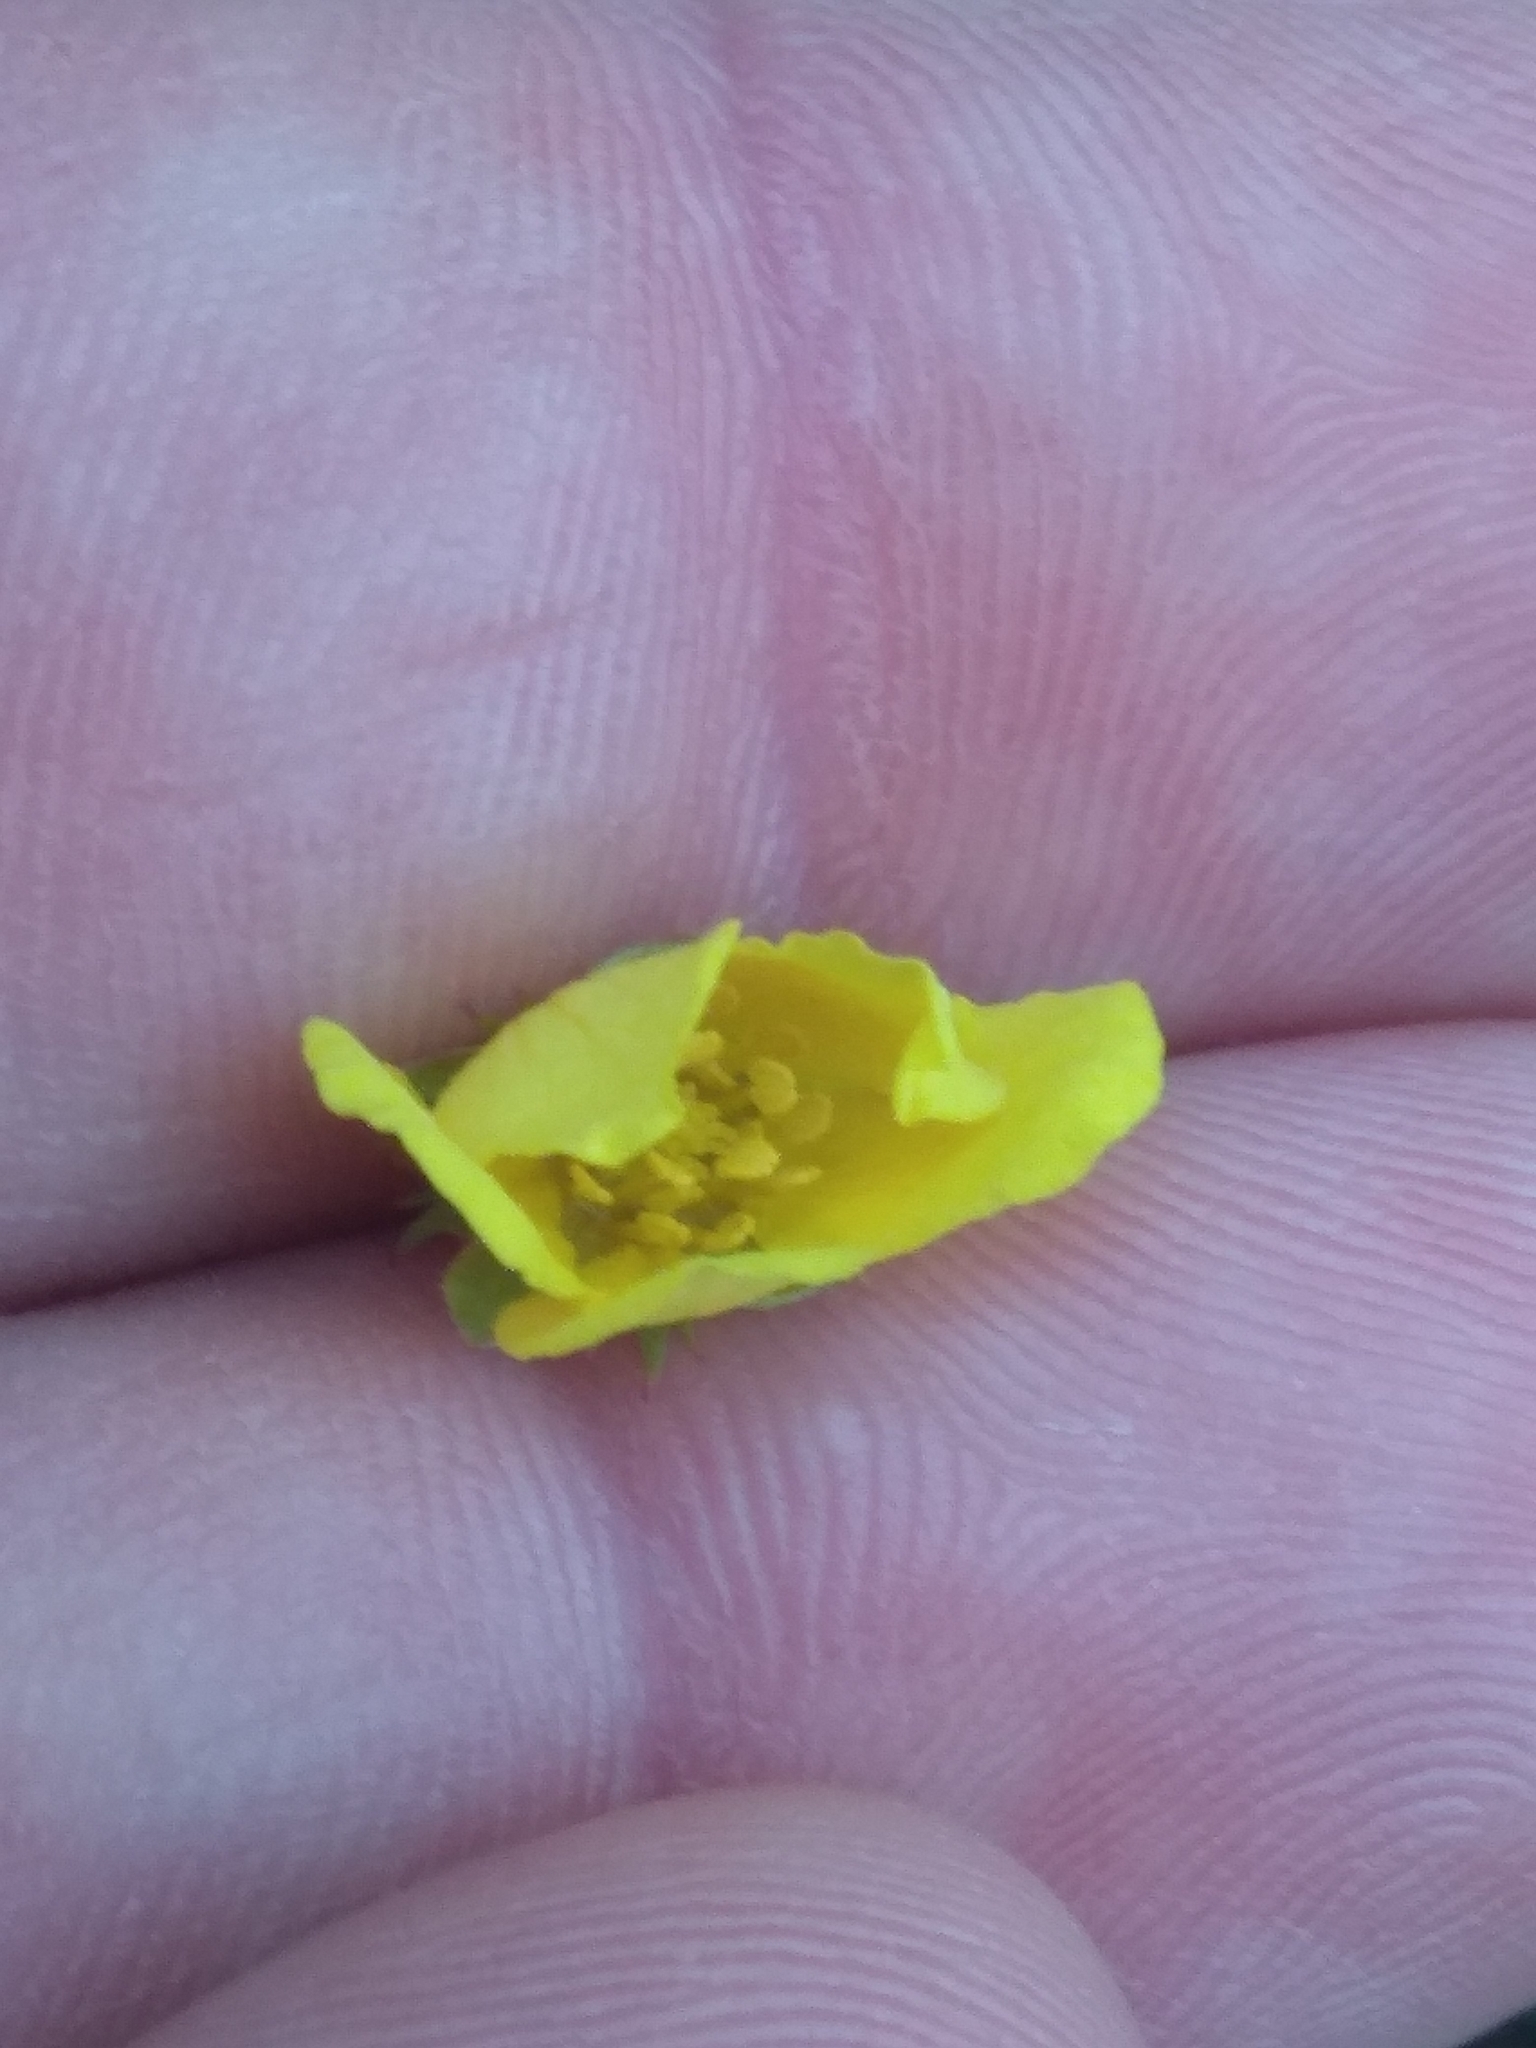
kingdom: Plantae
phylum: Tracheophyta
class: Magnoliopsida
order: Rosales
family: Rosaceae
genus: Argentina
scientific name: Argentina anserina
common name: Common silverweed
